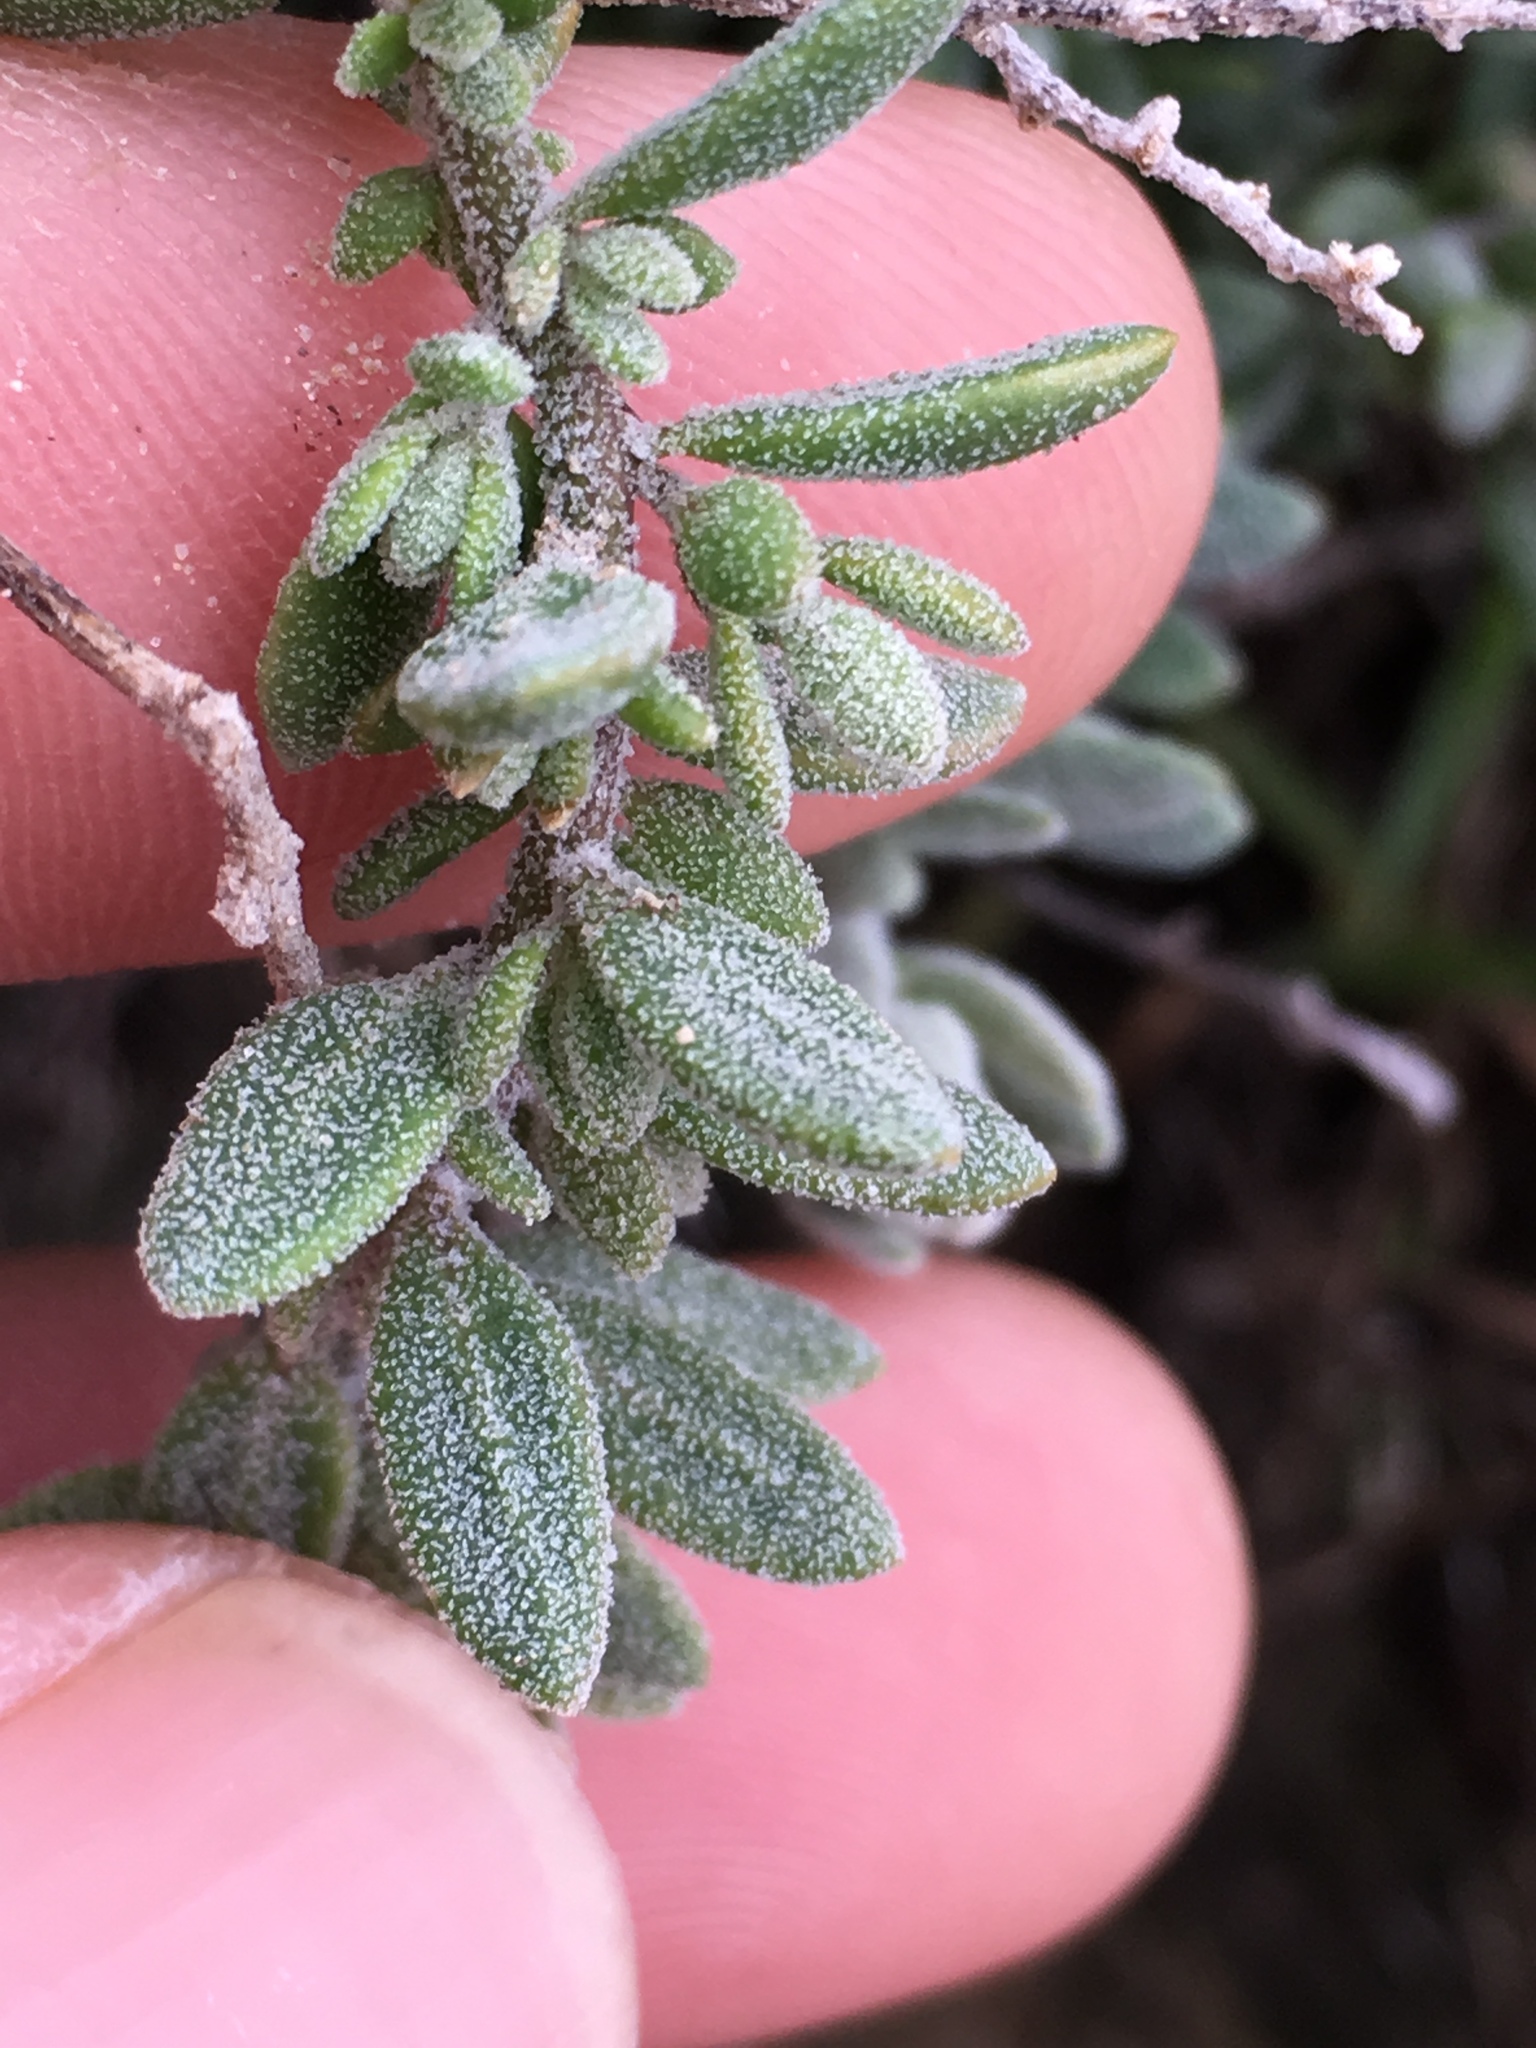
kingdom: Plantae
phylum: Tracheophyta
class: Magnoliopsida
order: Caryophyllales
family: Amaranthaceae
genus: Extriplex
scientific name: Extriplex californica
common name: California saltbush
